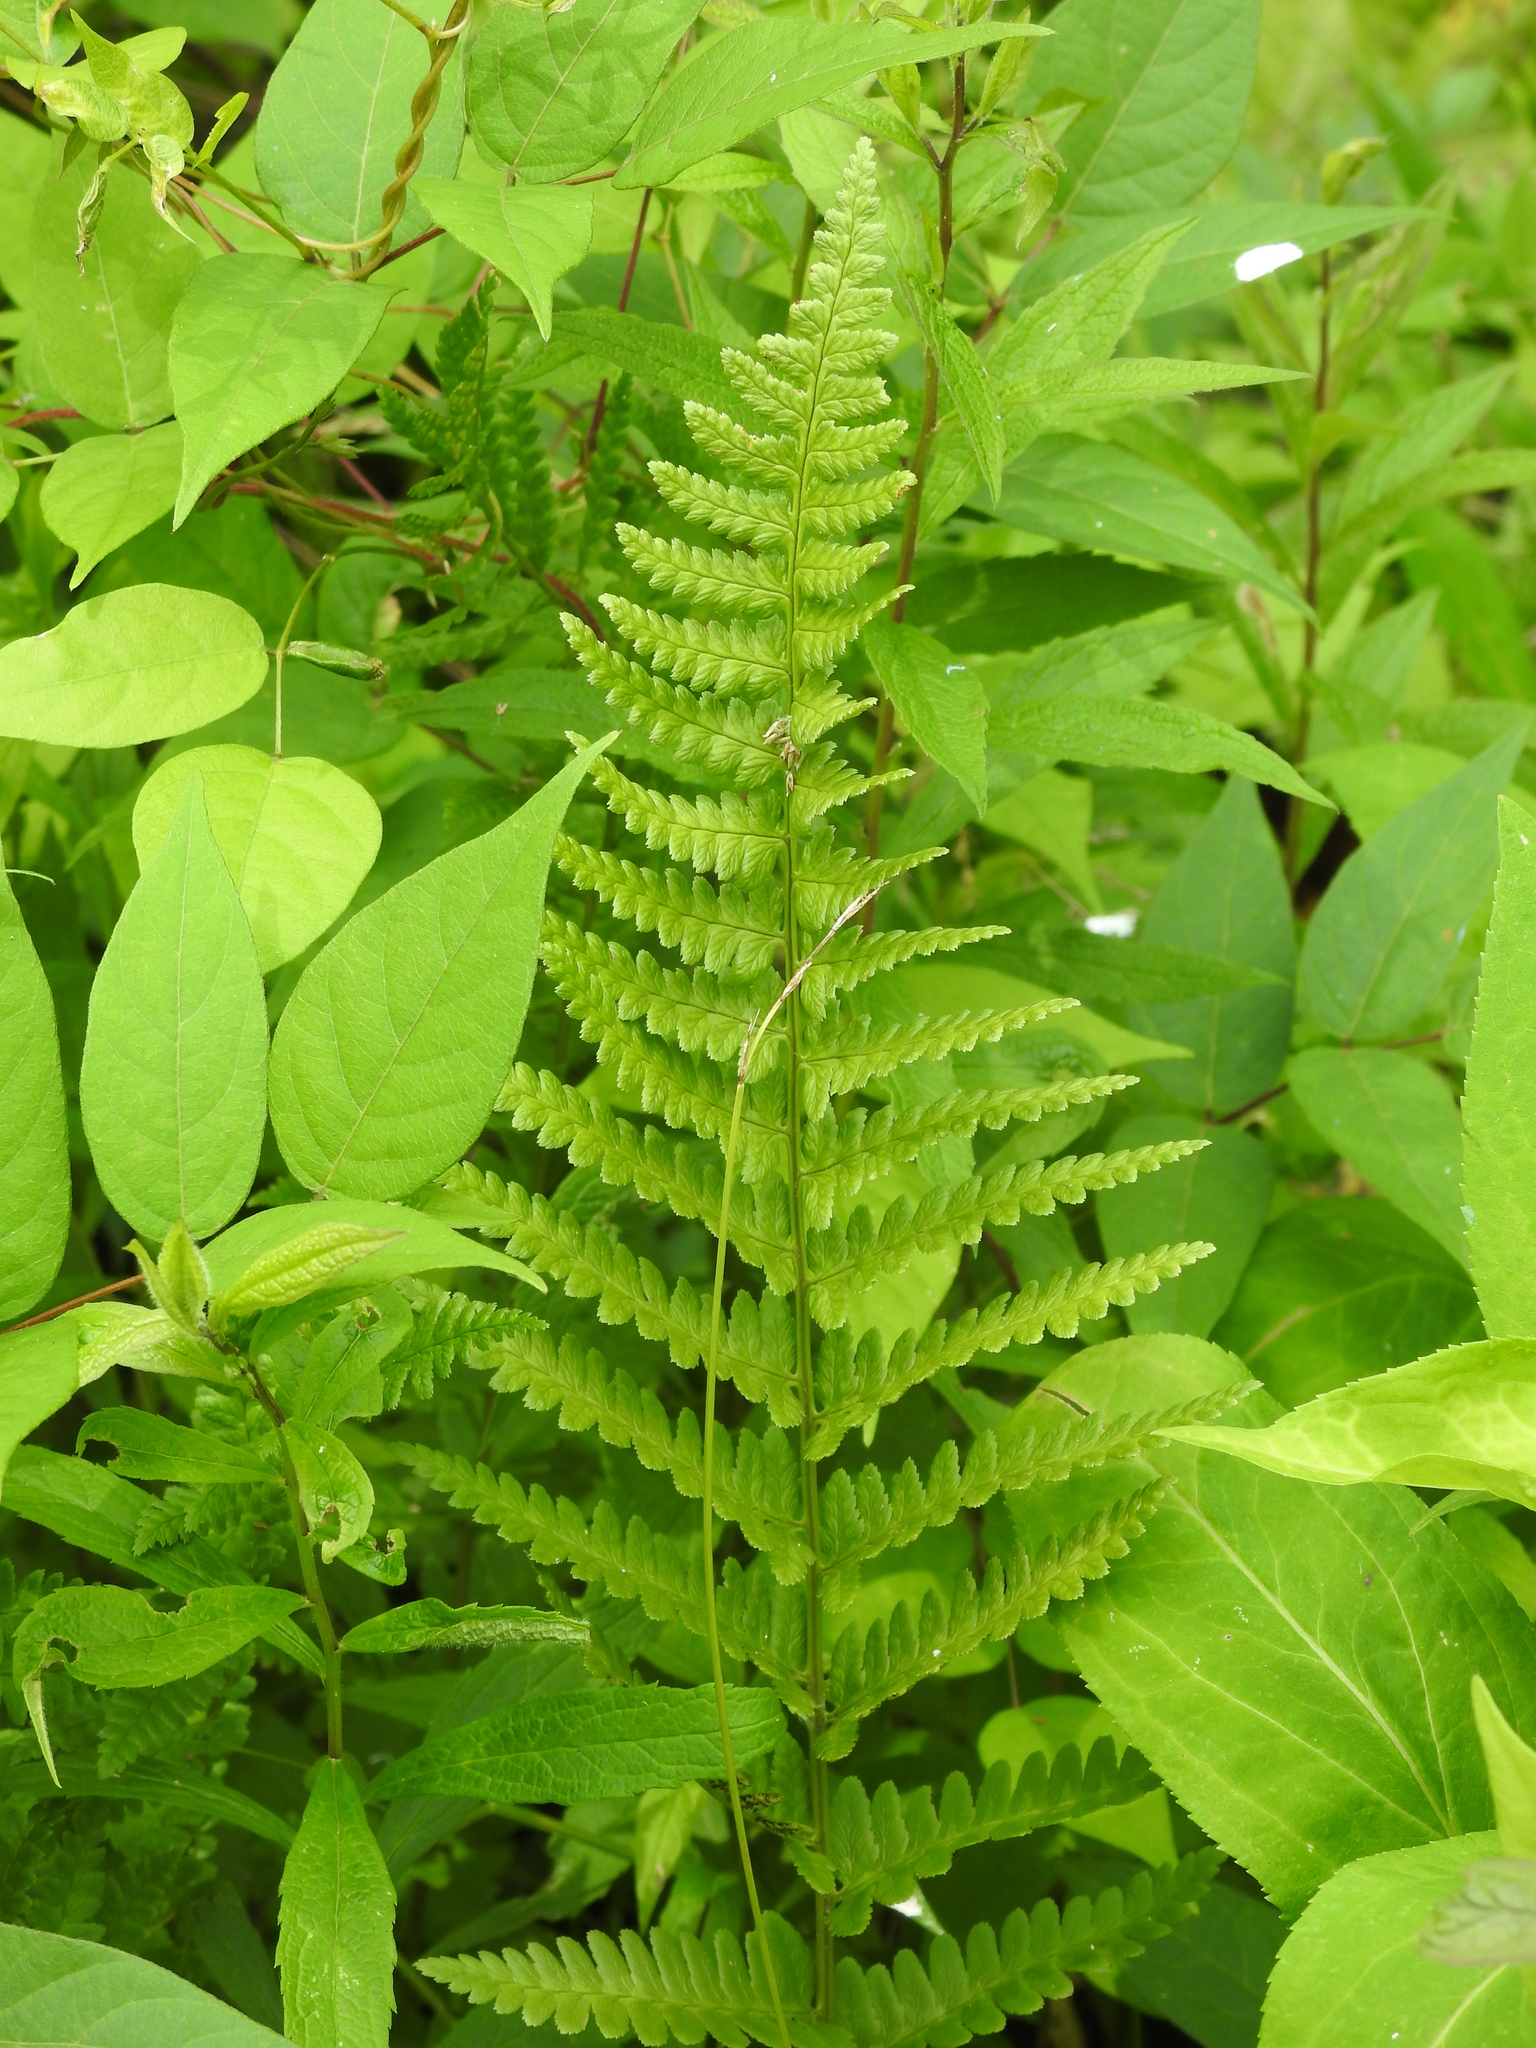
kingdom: Plantae
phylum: Tracheophyta
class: Polypodiopsida
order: Polypodiales
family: Dryopteridaceae
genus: Dryopteris
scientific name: Dryopteris cristata
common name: Crested wood fern
